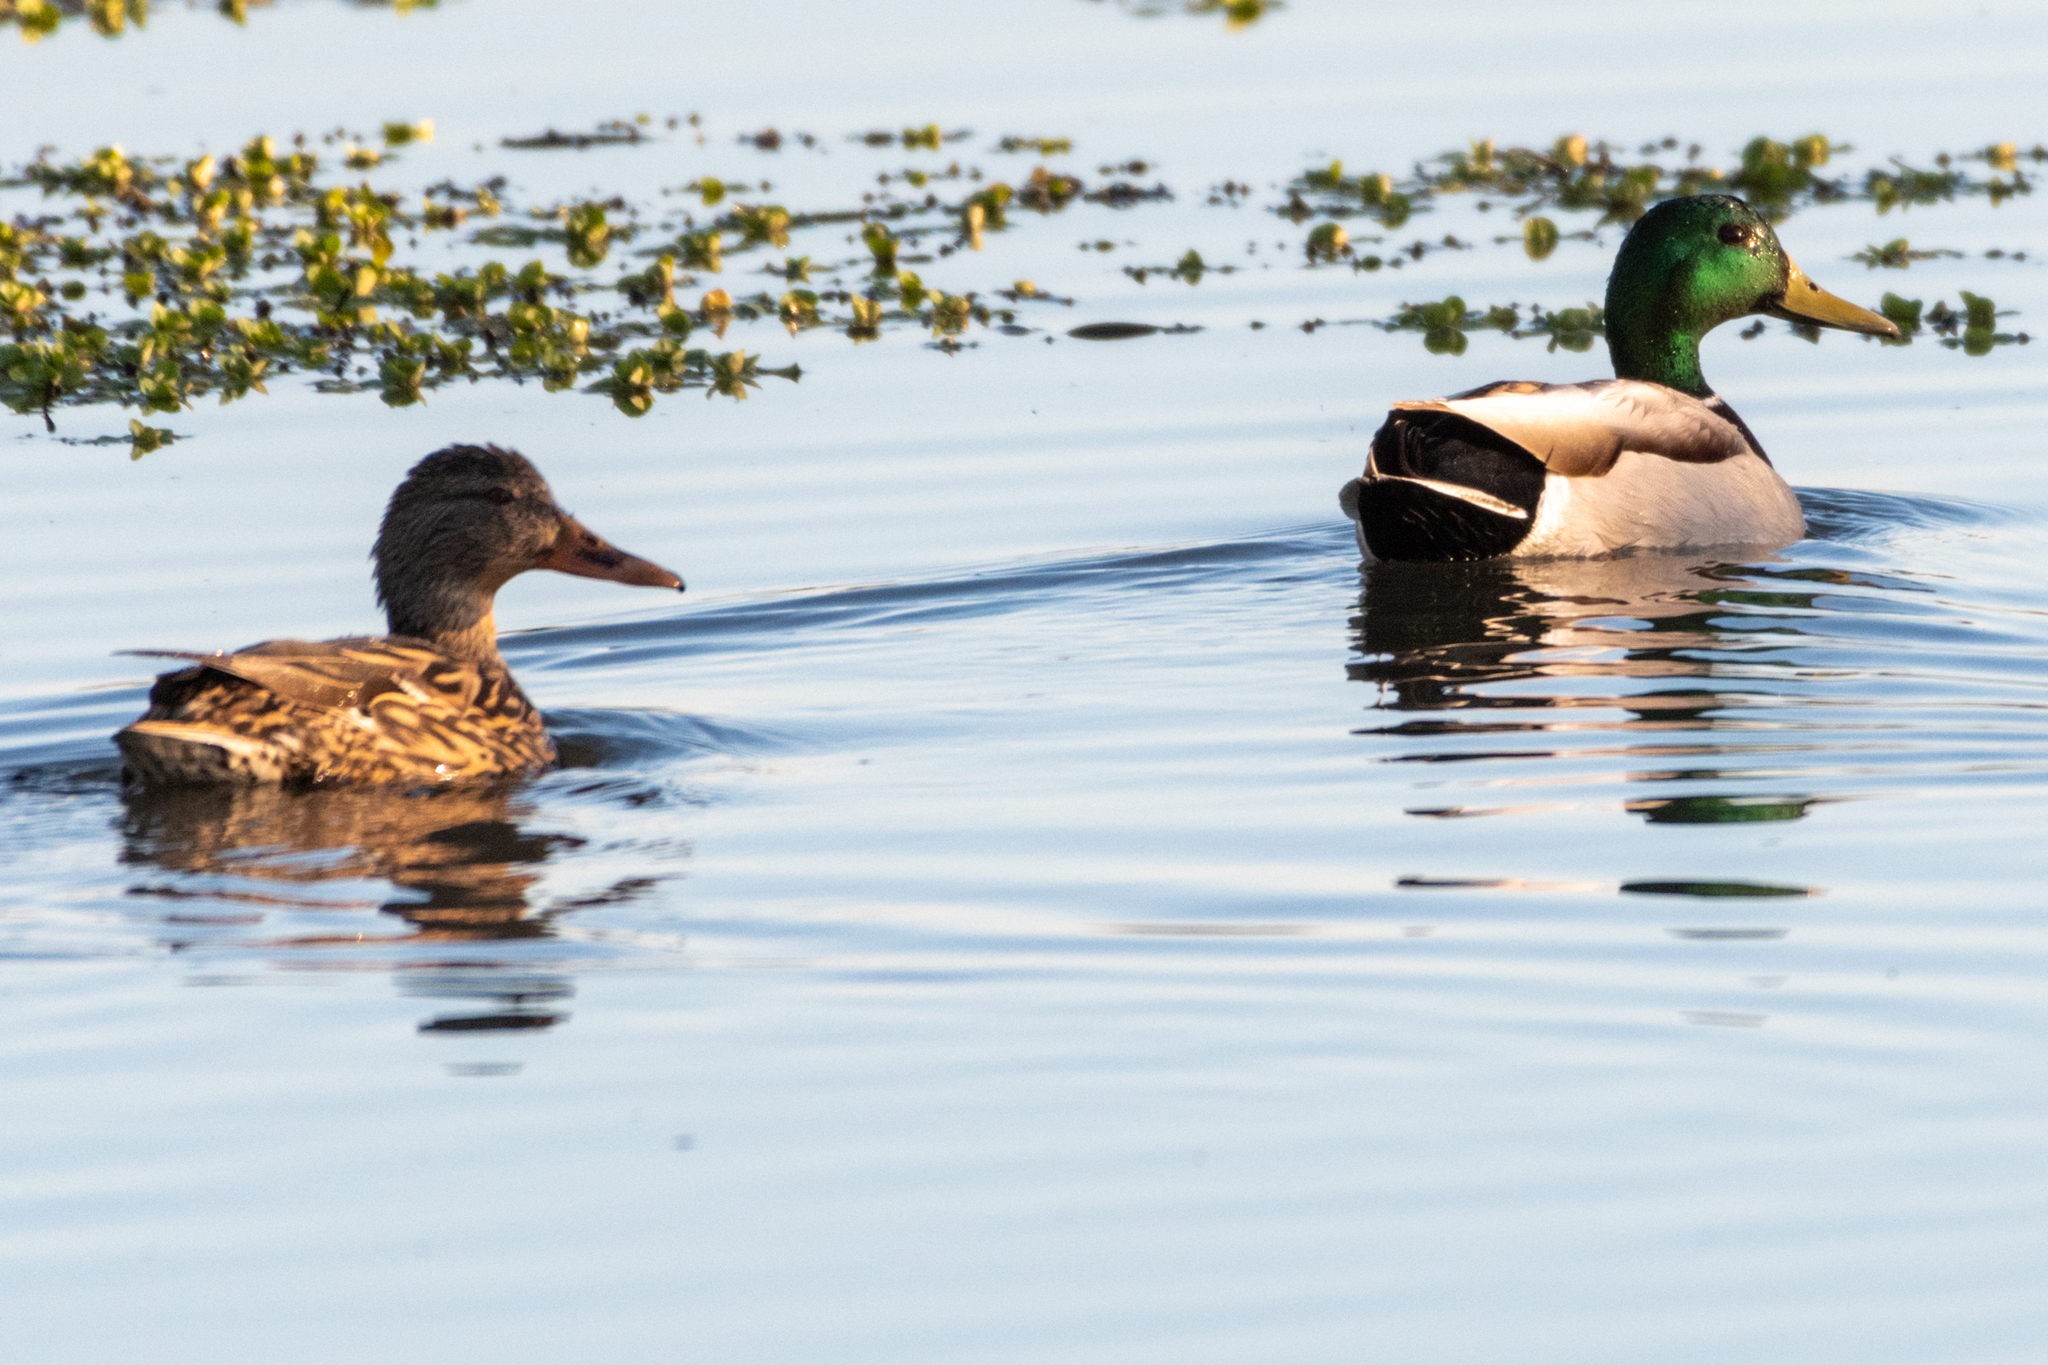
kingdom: Animalia
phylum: Chordata
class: Aves
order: Anseriformes
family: Anatidae
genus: Anas
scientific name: Anas platyrhynchos
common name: Mallard
